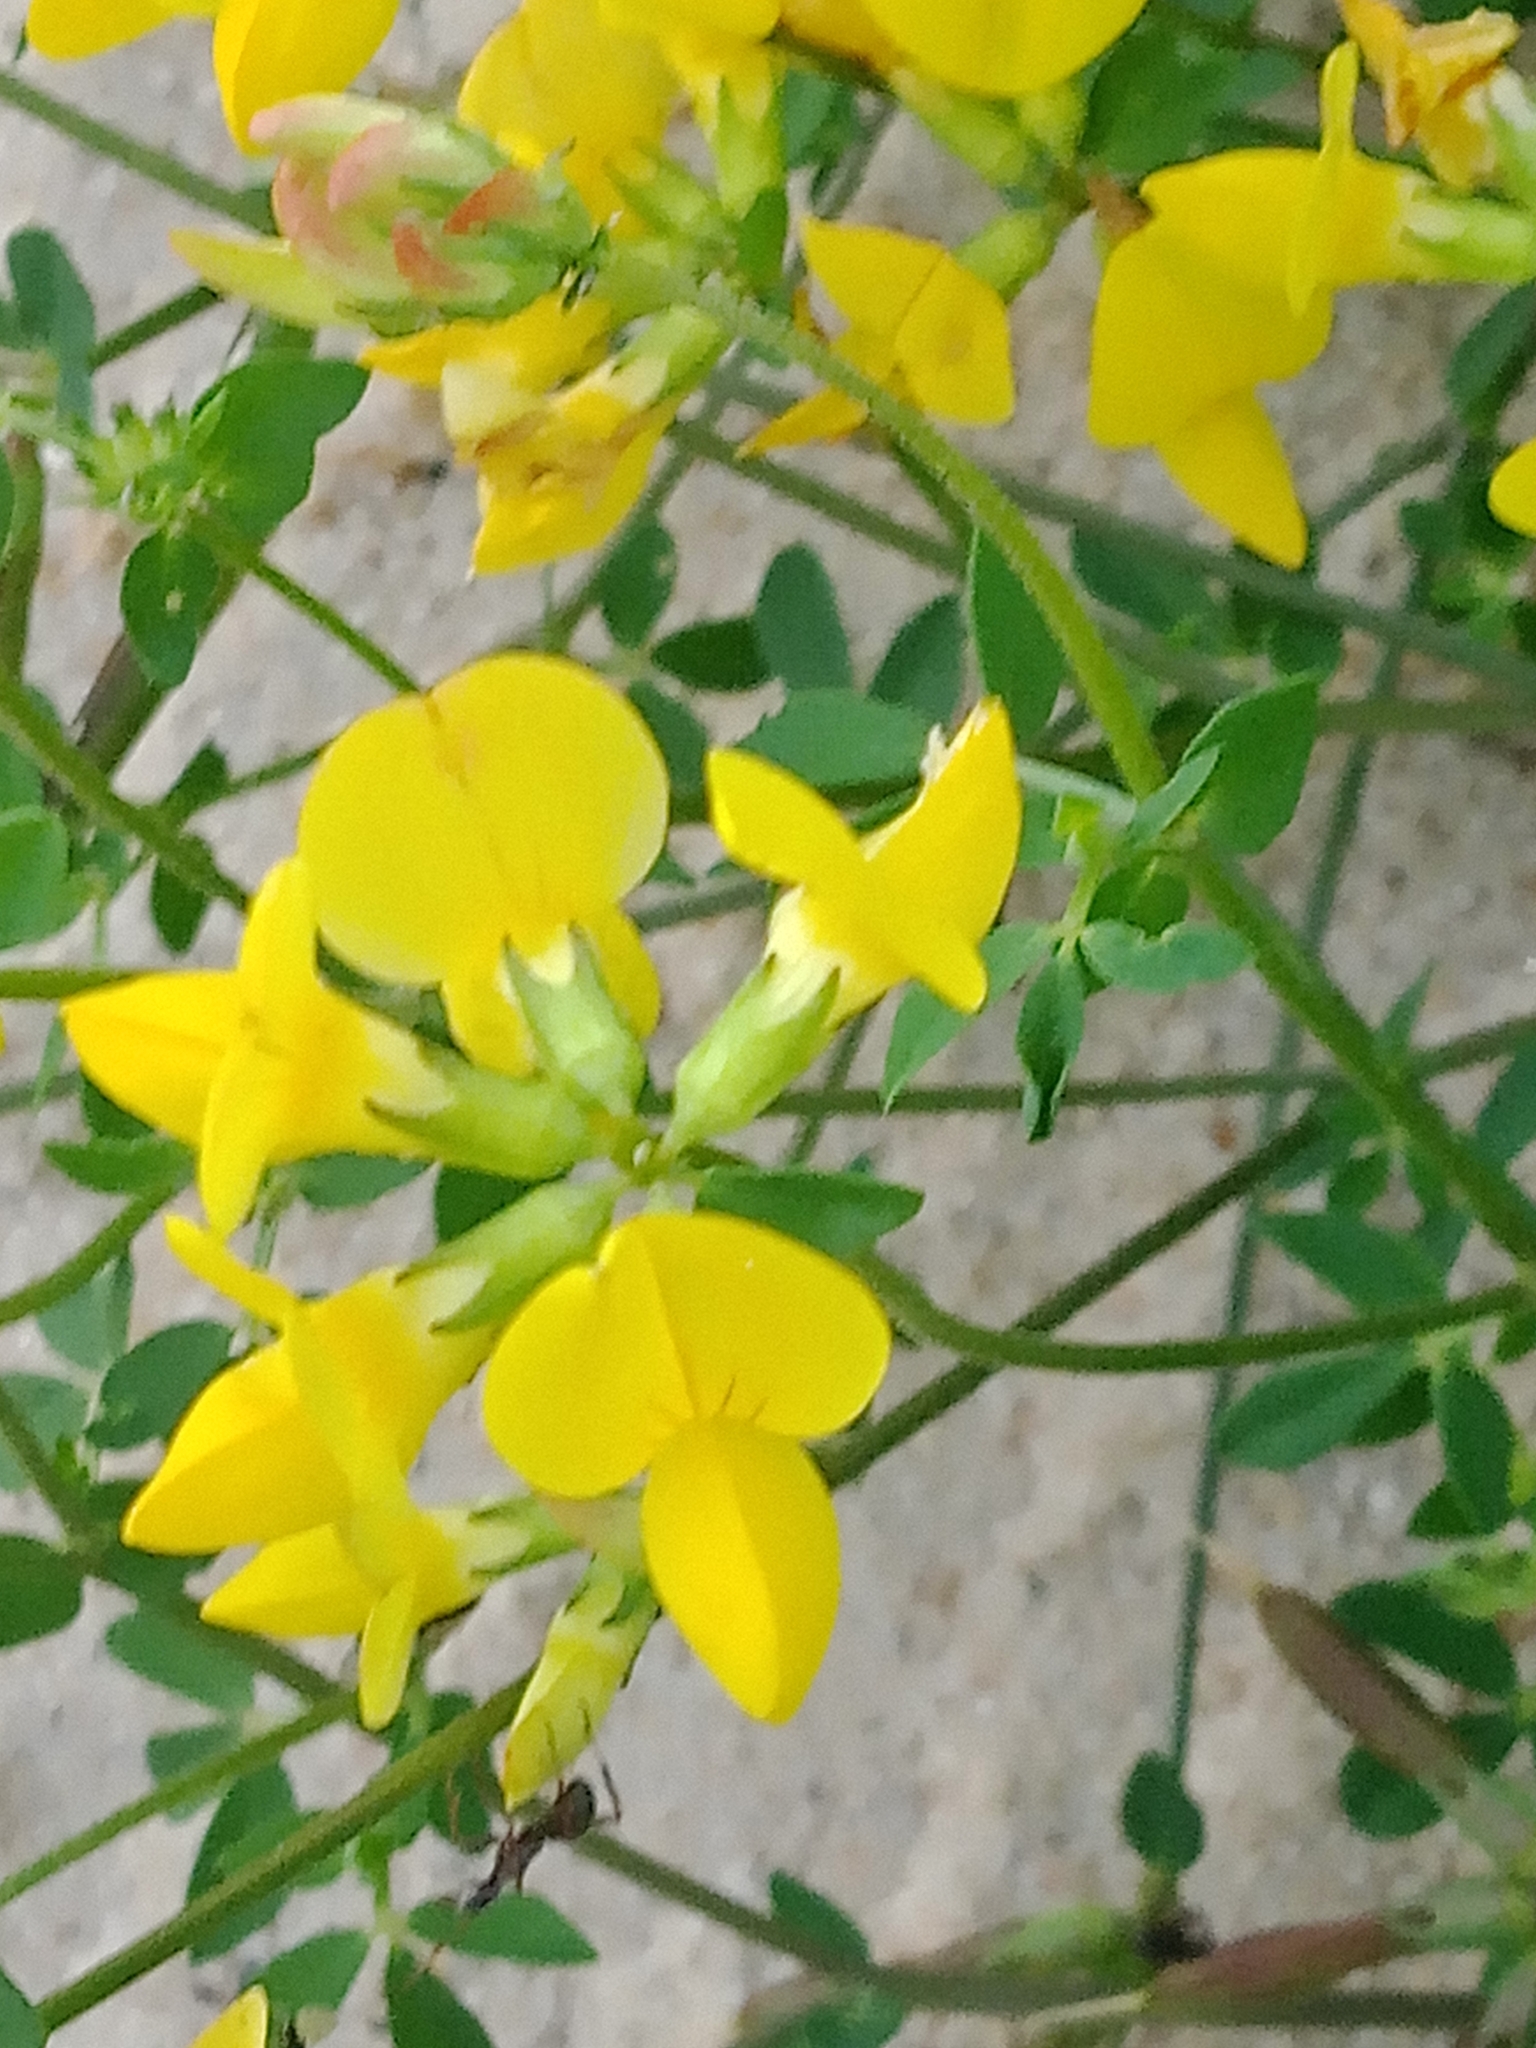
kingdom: Plantae
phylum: Tracheophyta
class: Magnoliopsida
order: Fabales
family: Fabaceae
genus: Lotus
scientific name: Lotus corniculatus
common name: Common bird's-foot-trefoil
